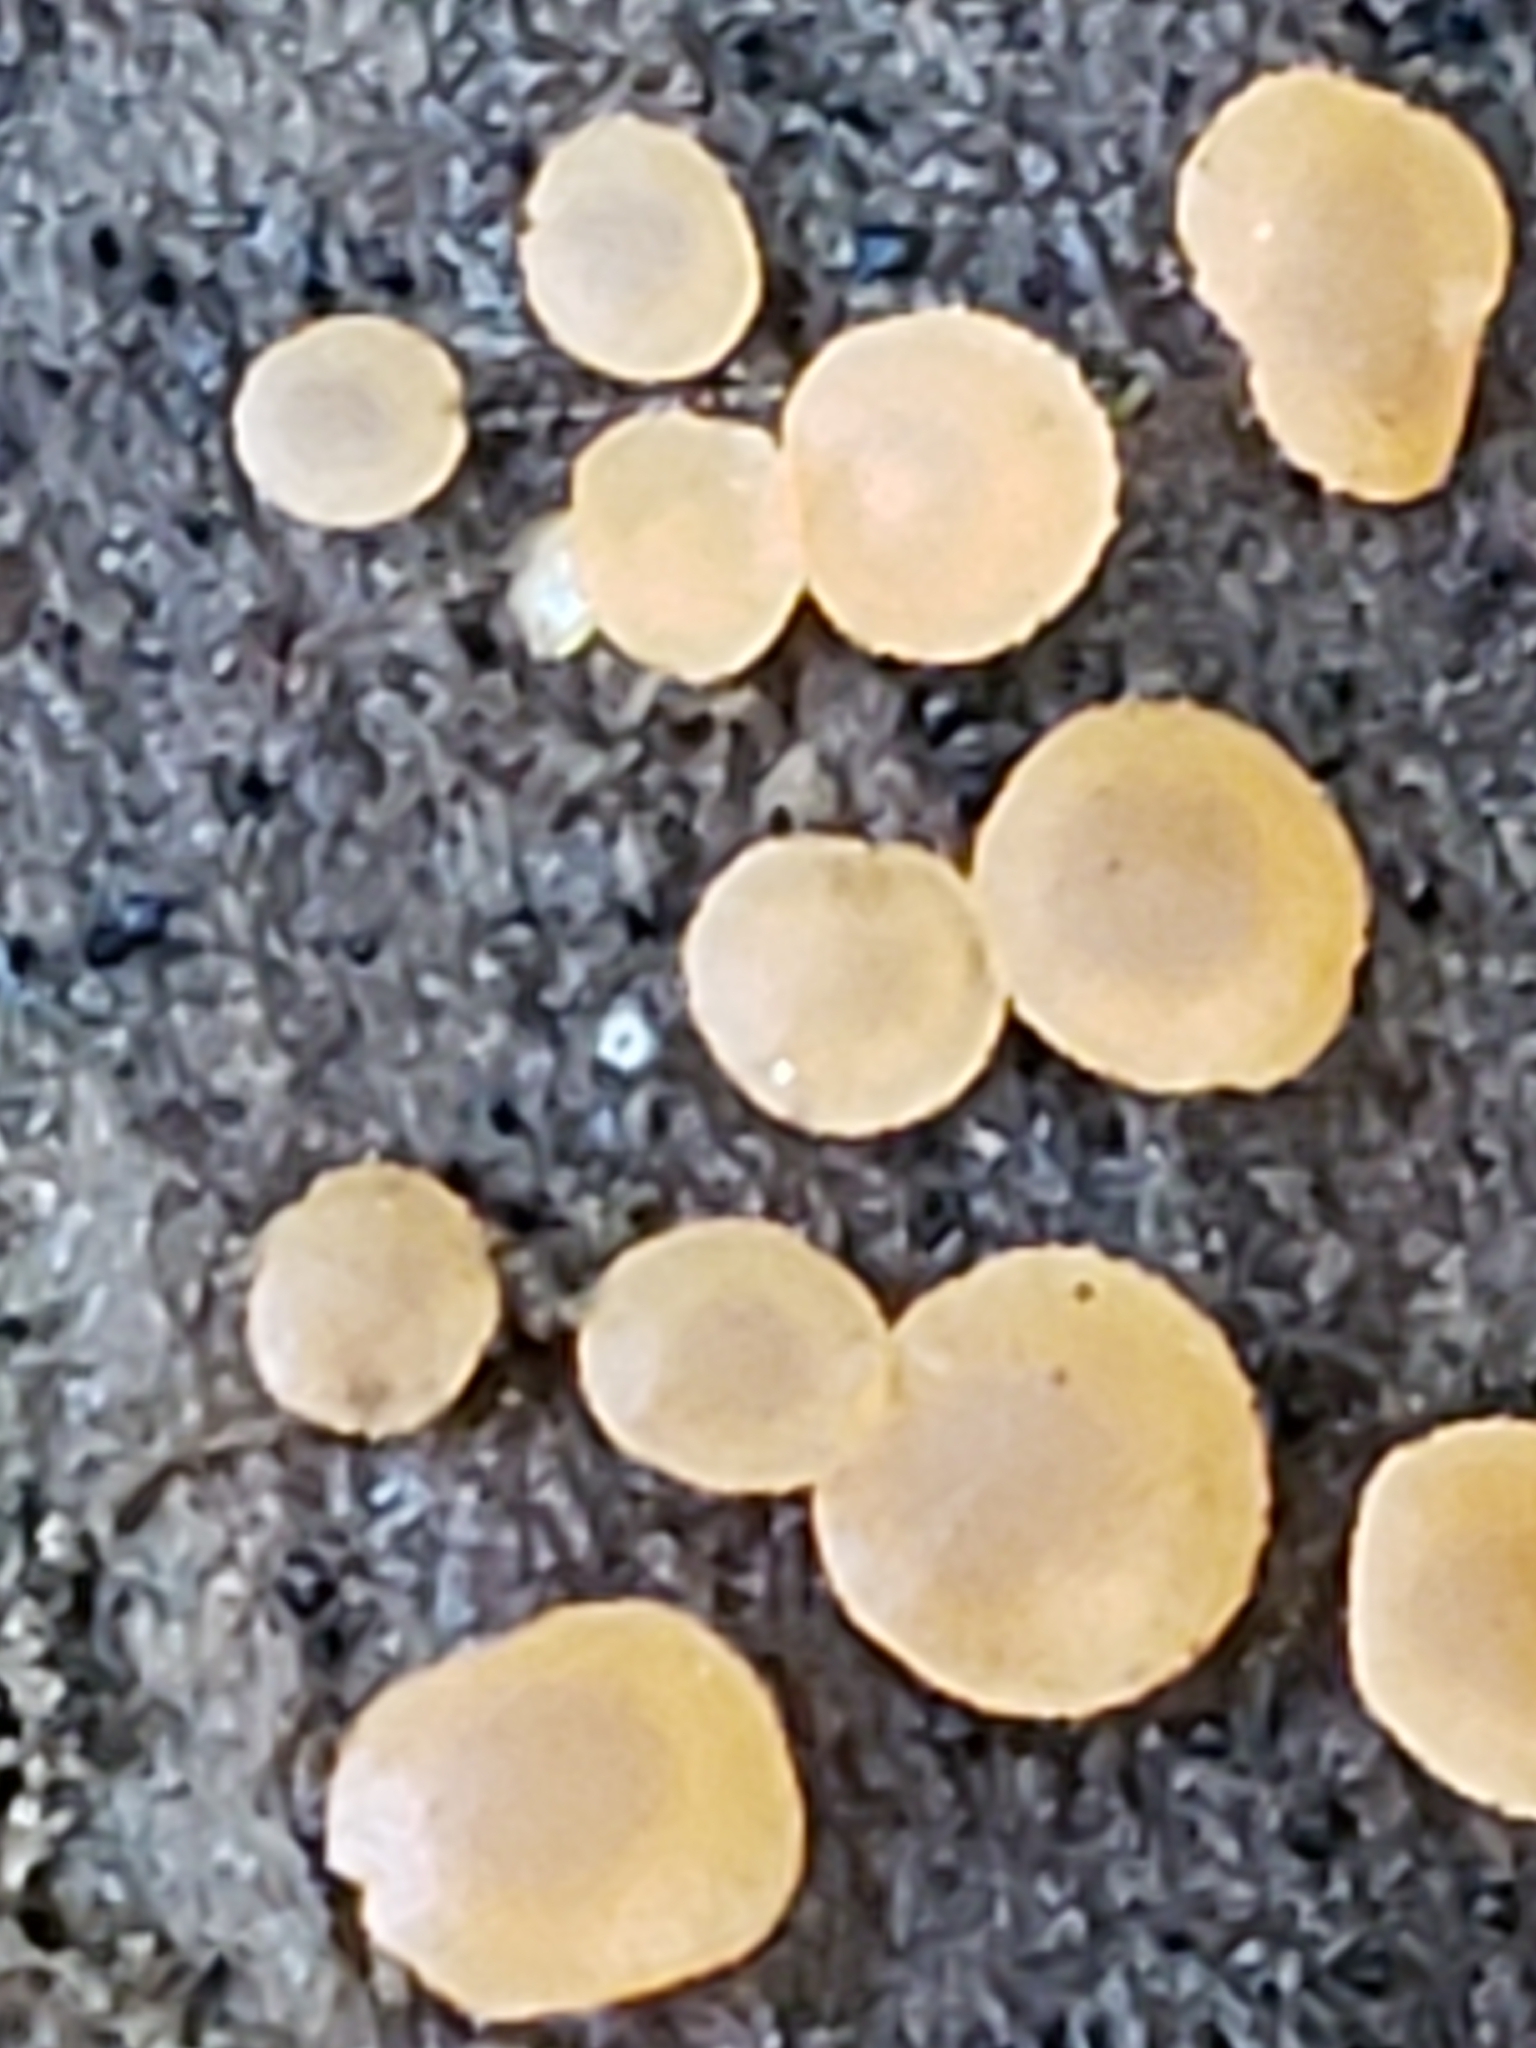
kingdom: Fungi
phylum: Ascomycota
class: Orbiliomycetes
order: Orbiliales
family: Orbiliaceae
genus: Orbilia
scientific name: Orbilia
